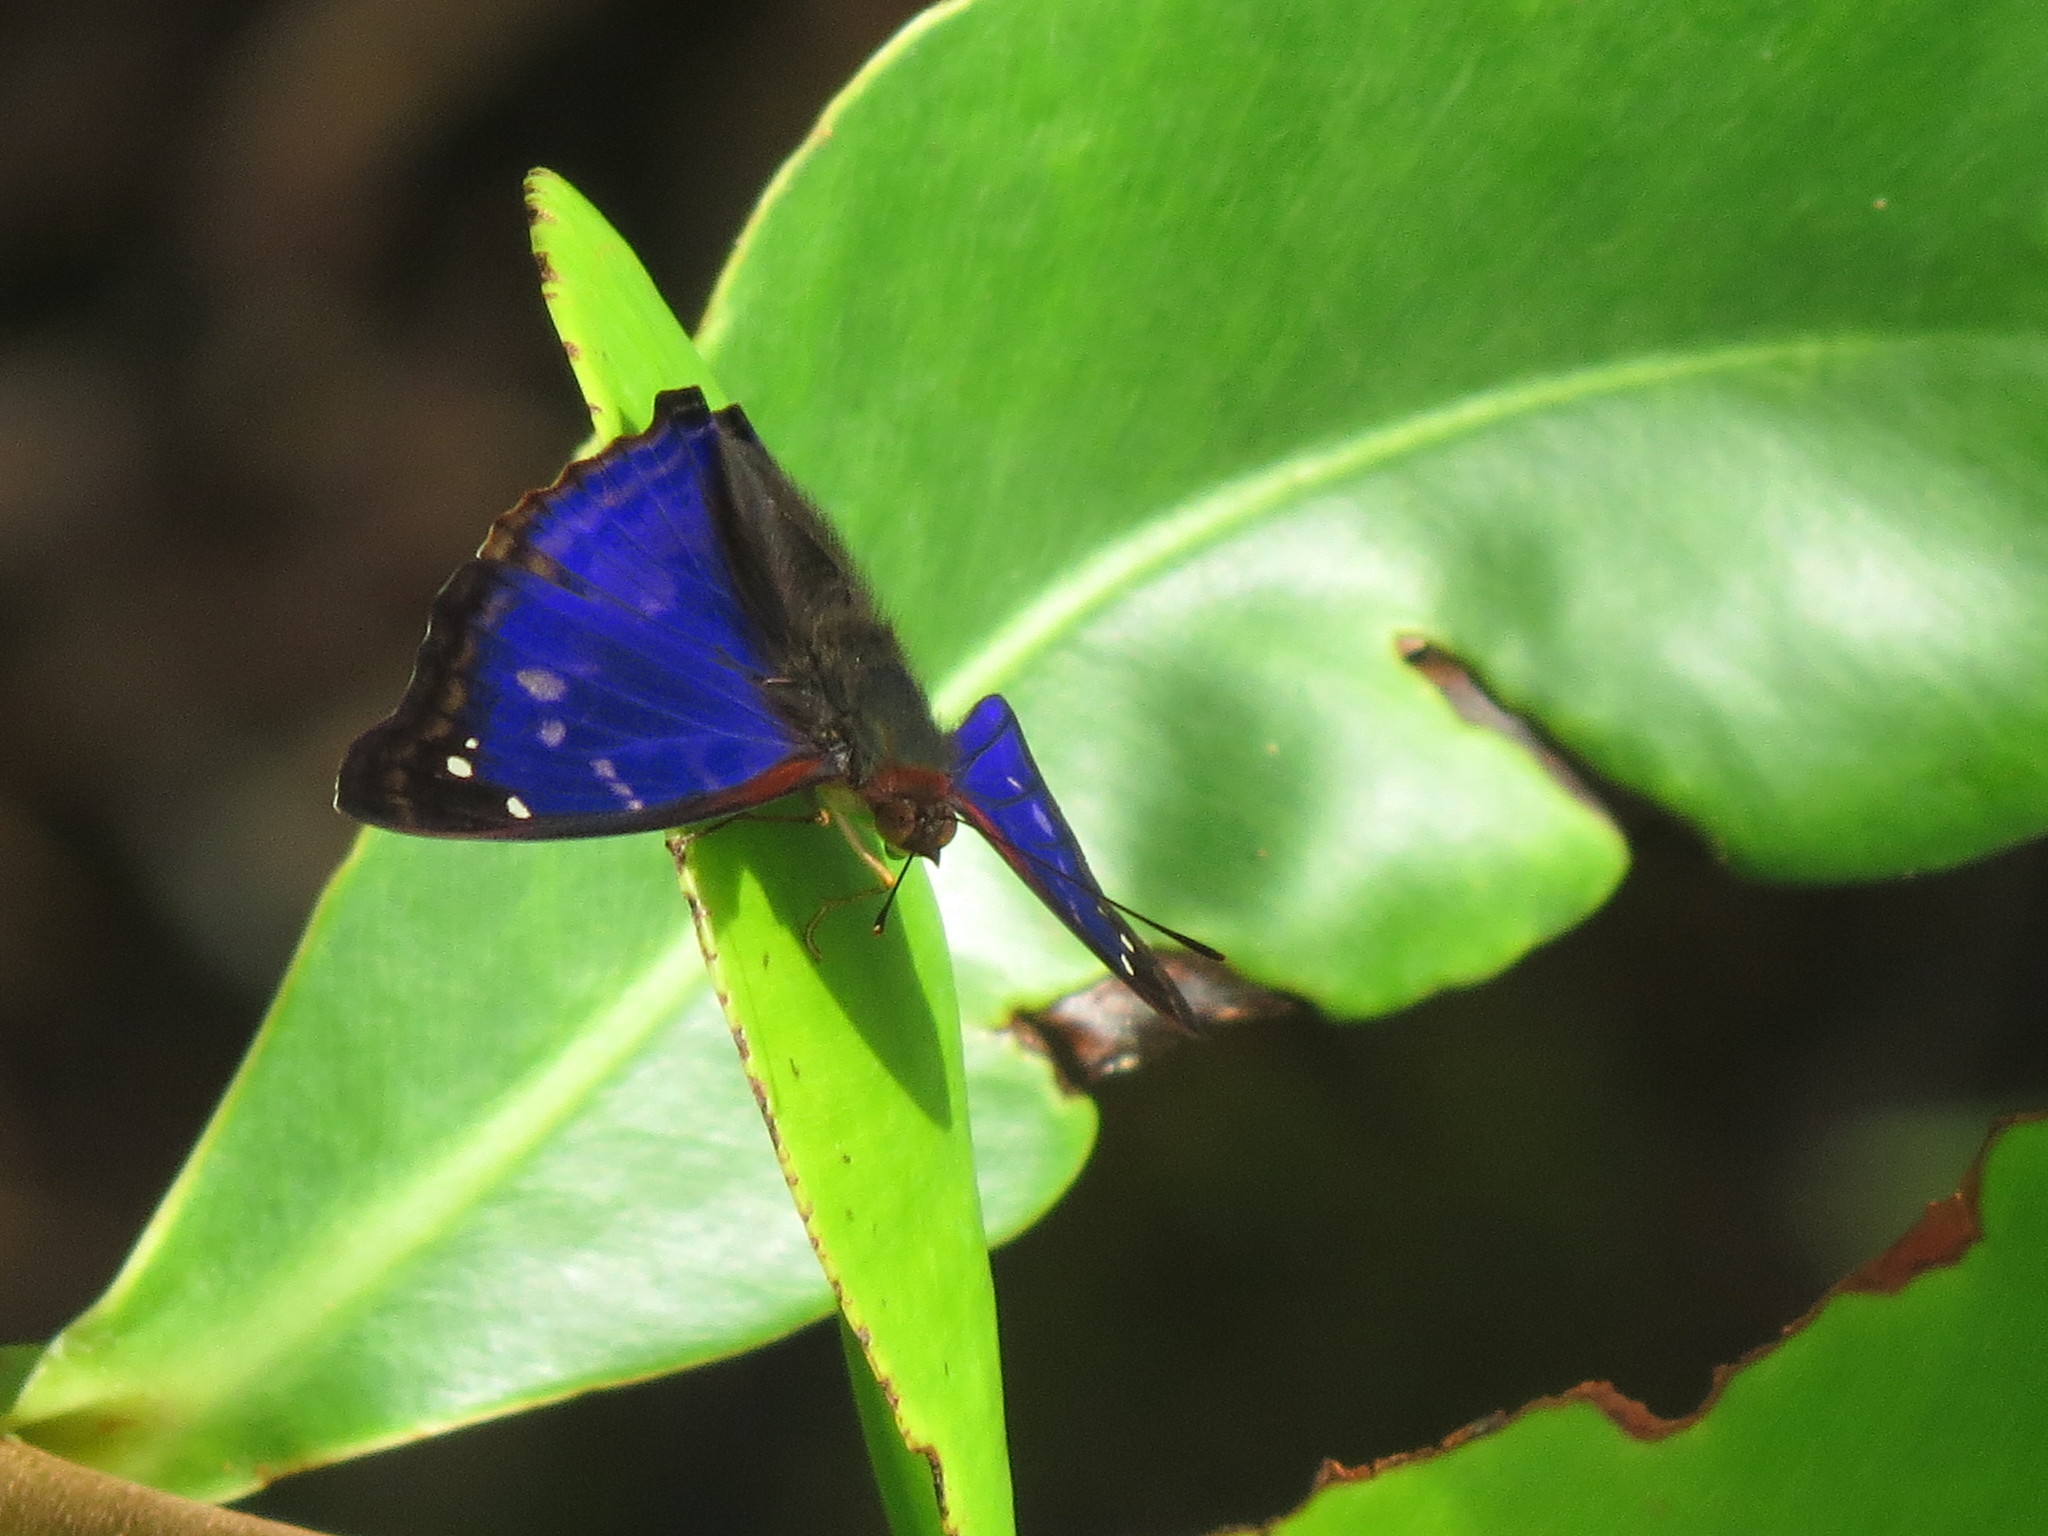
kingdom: Animalia
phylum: Arthropoda
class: Insecta
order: Lepidoptera
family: Nymphalidae
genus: Doxocopa
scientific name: Doxocopa agathina
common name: Agathina emperor
